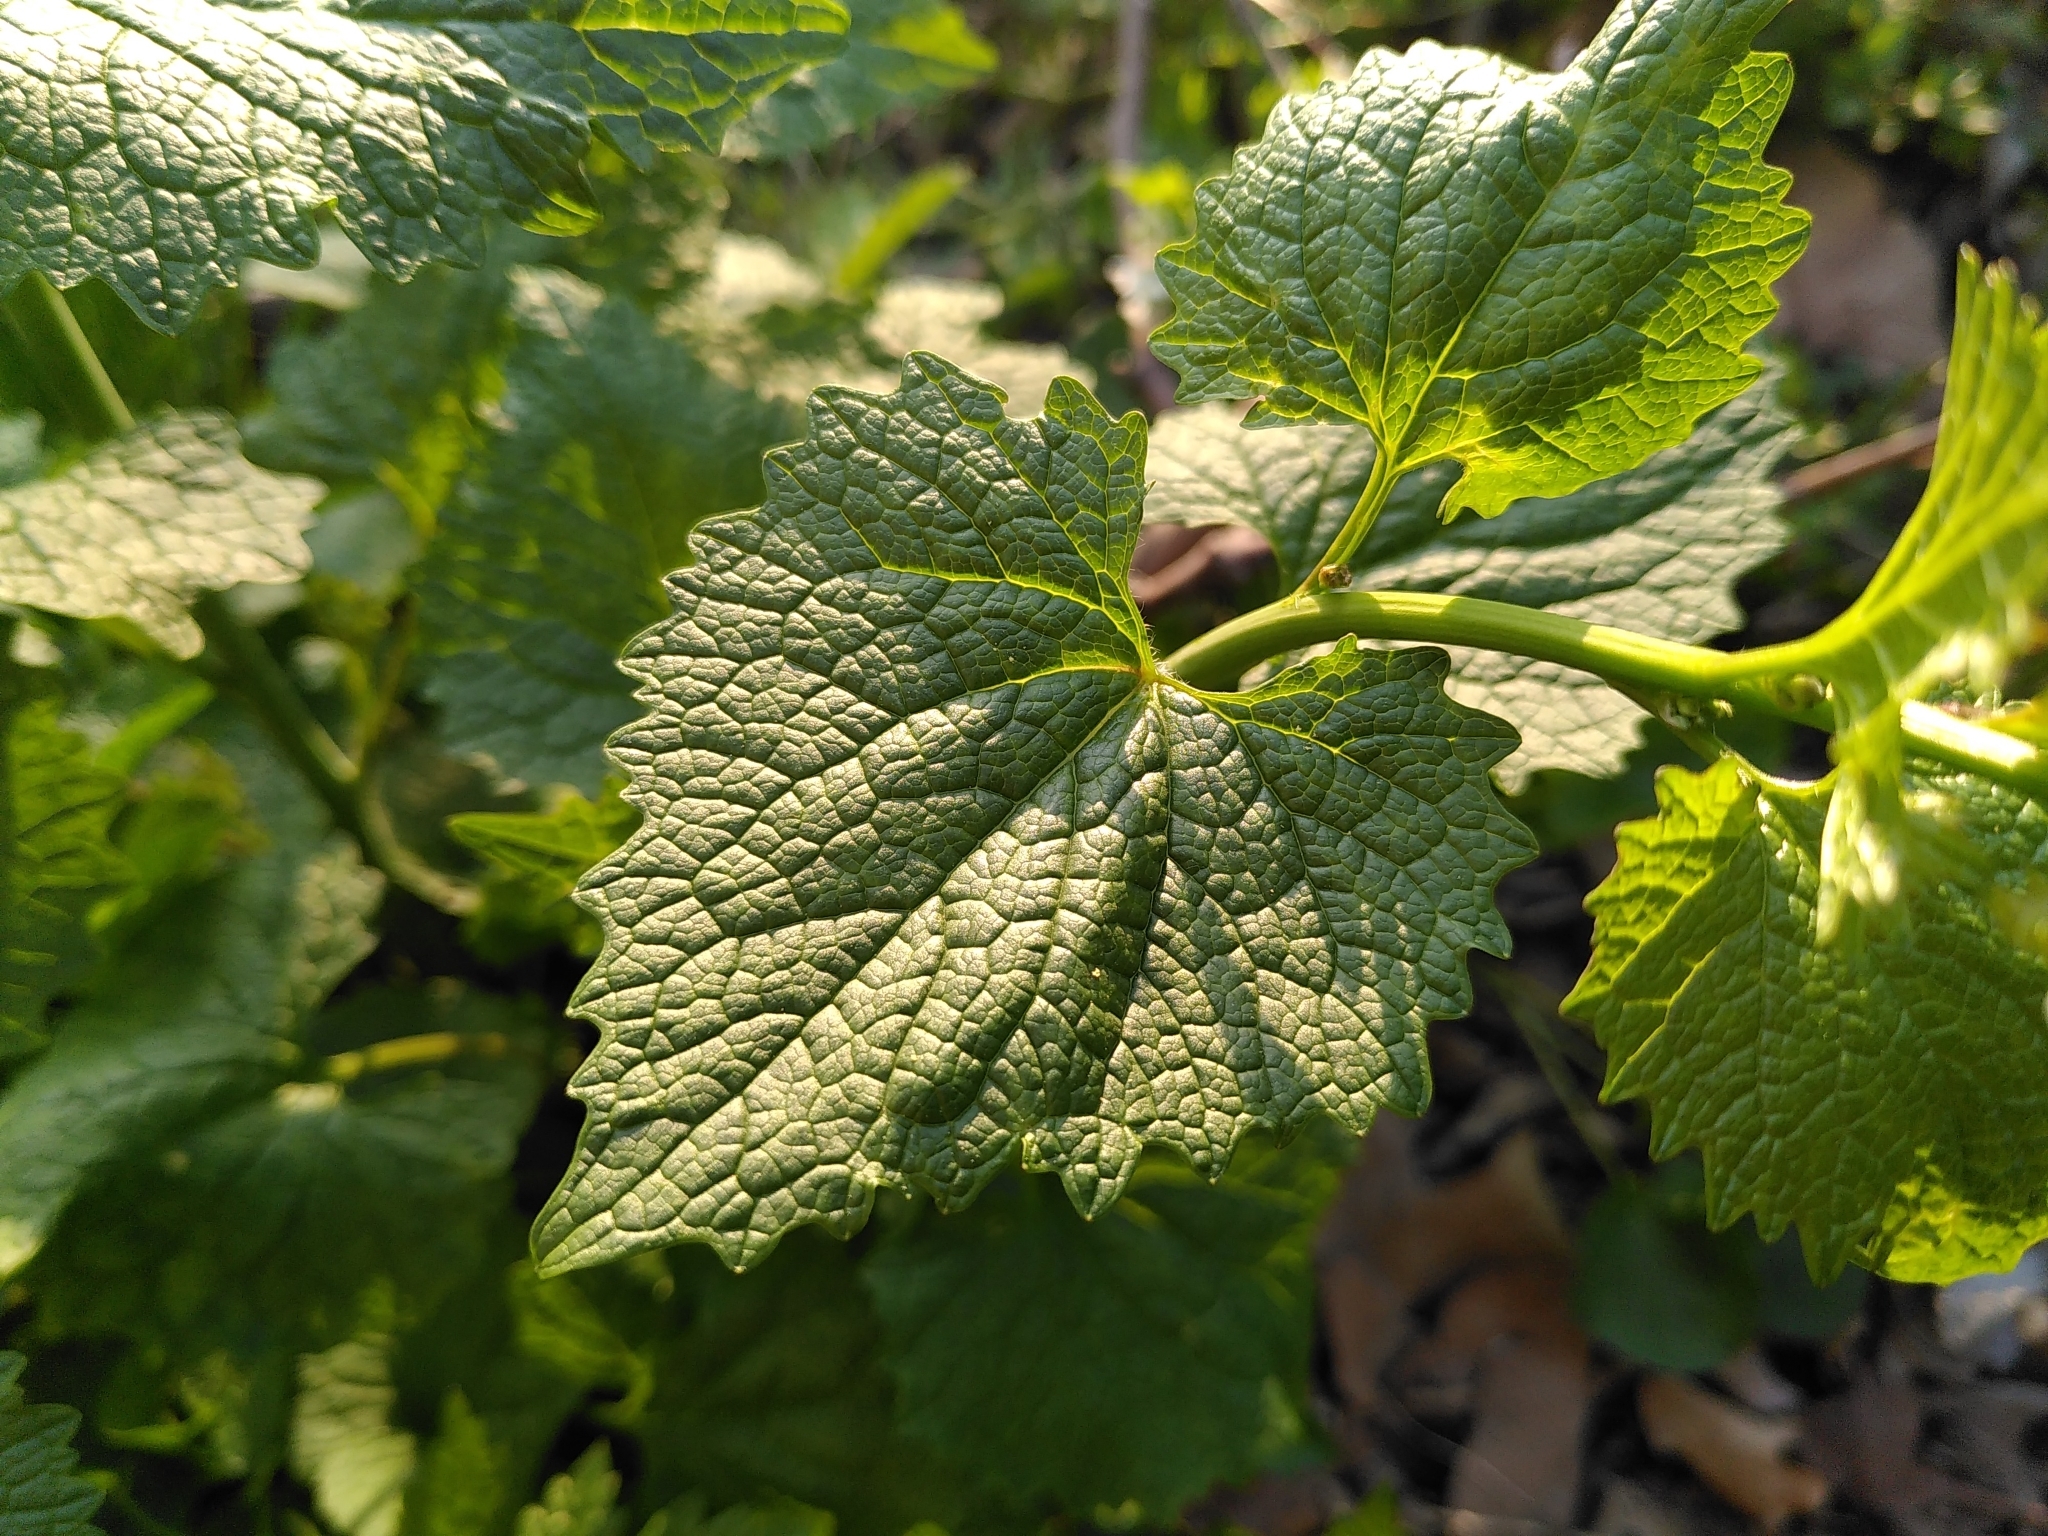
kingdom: Plantae
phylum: Tracheophyta
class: Magnoliopsida
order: Brassicales
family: Brassicaceae
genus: Alliaria
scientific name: Alliaria petiolata
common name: Garlic mustard
